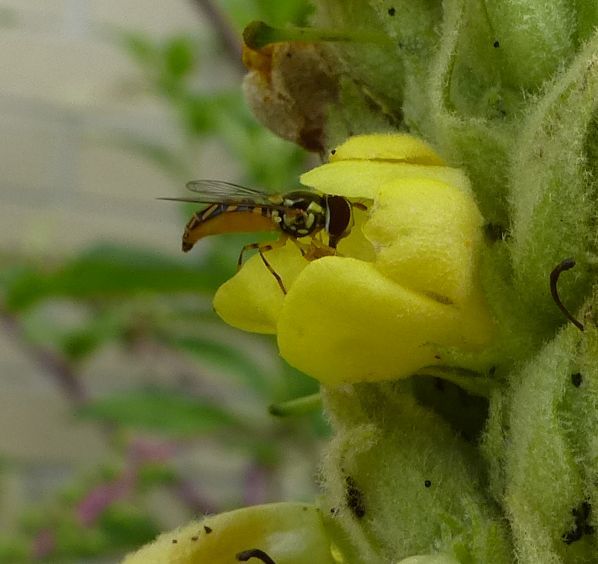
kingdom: Animalia
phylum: Arthropoda
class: Insecta
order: Diptera
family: Syrphidae
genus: Allograpta
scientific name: Allograpta obliqua
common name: Common oblique syrphid
